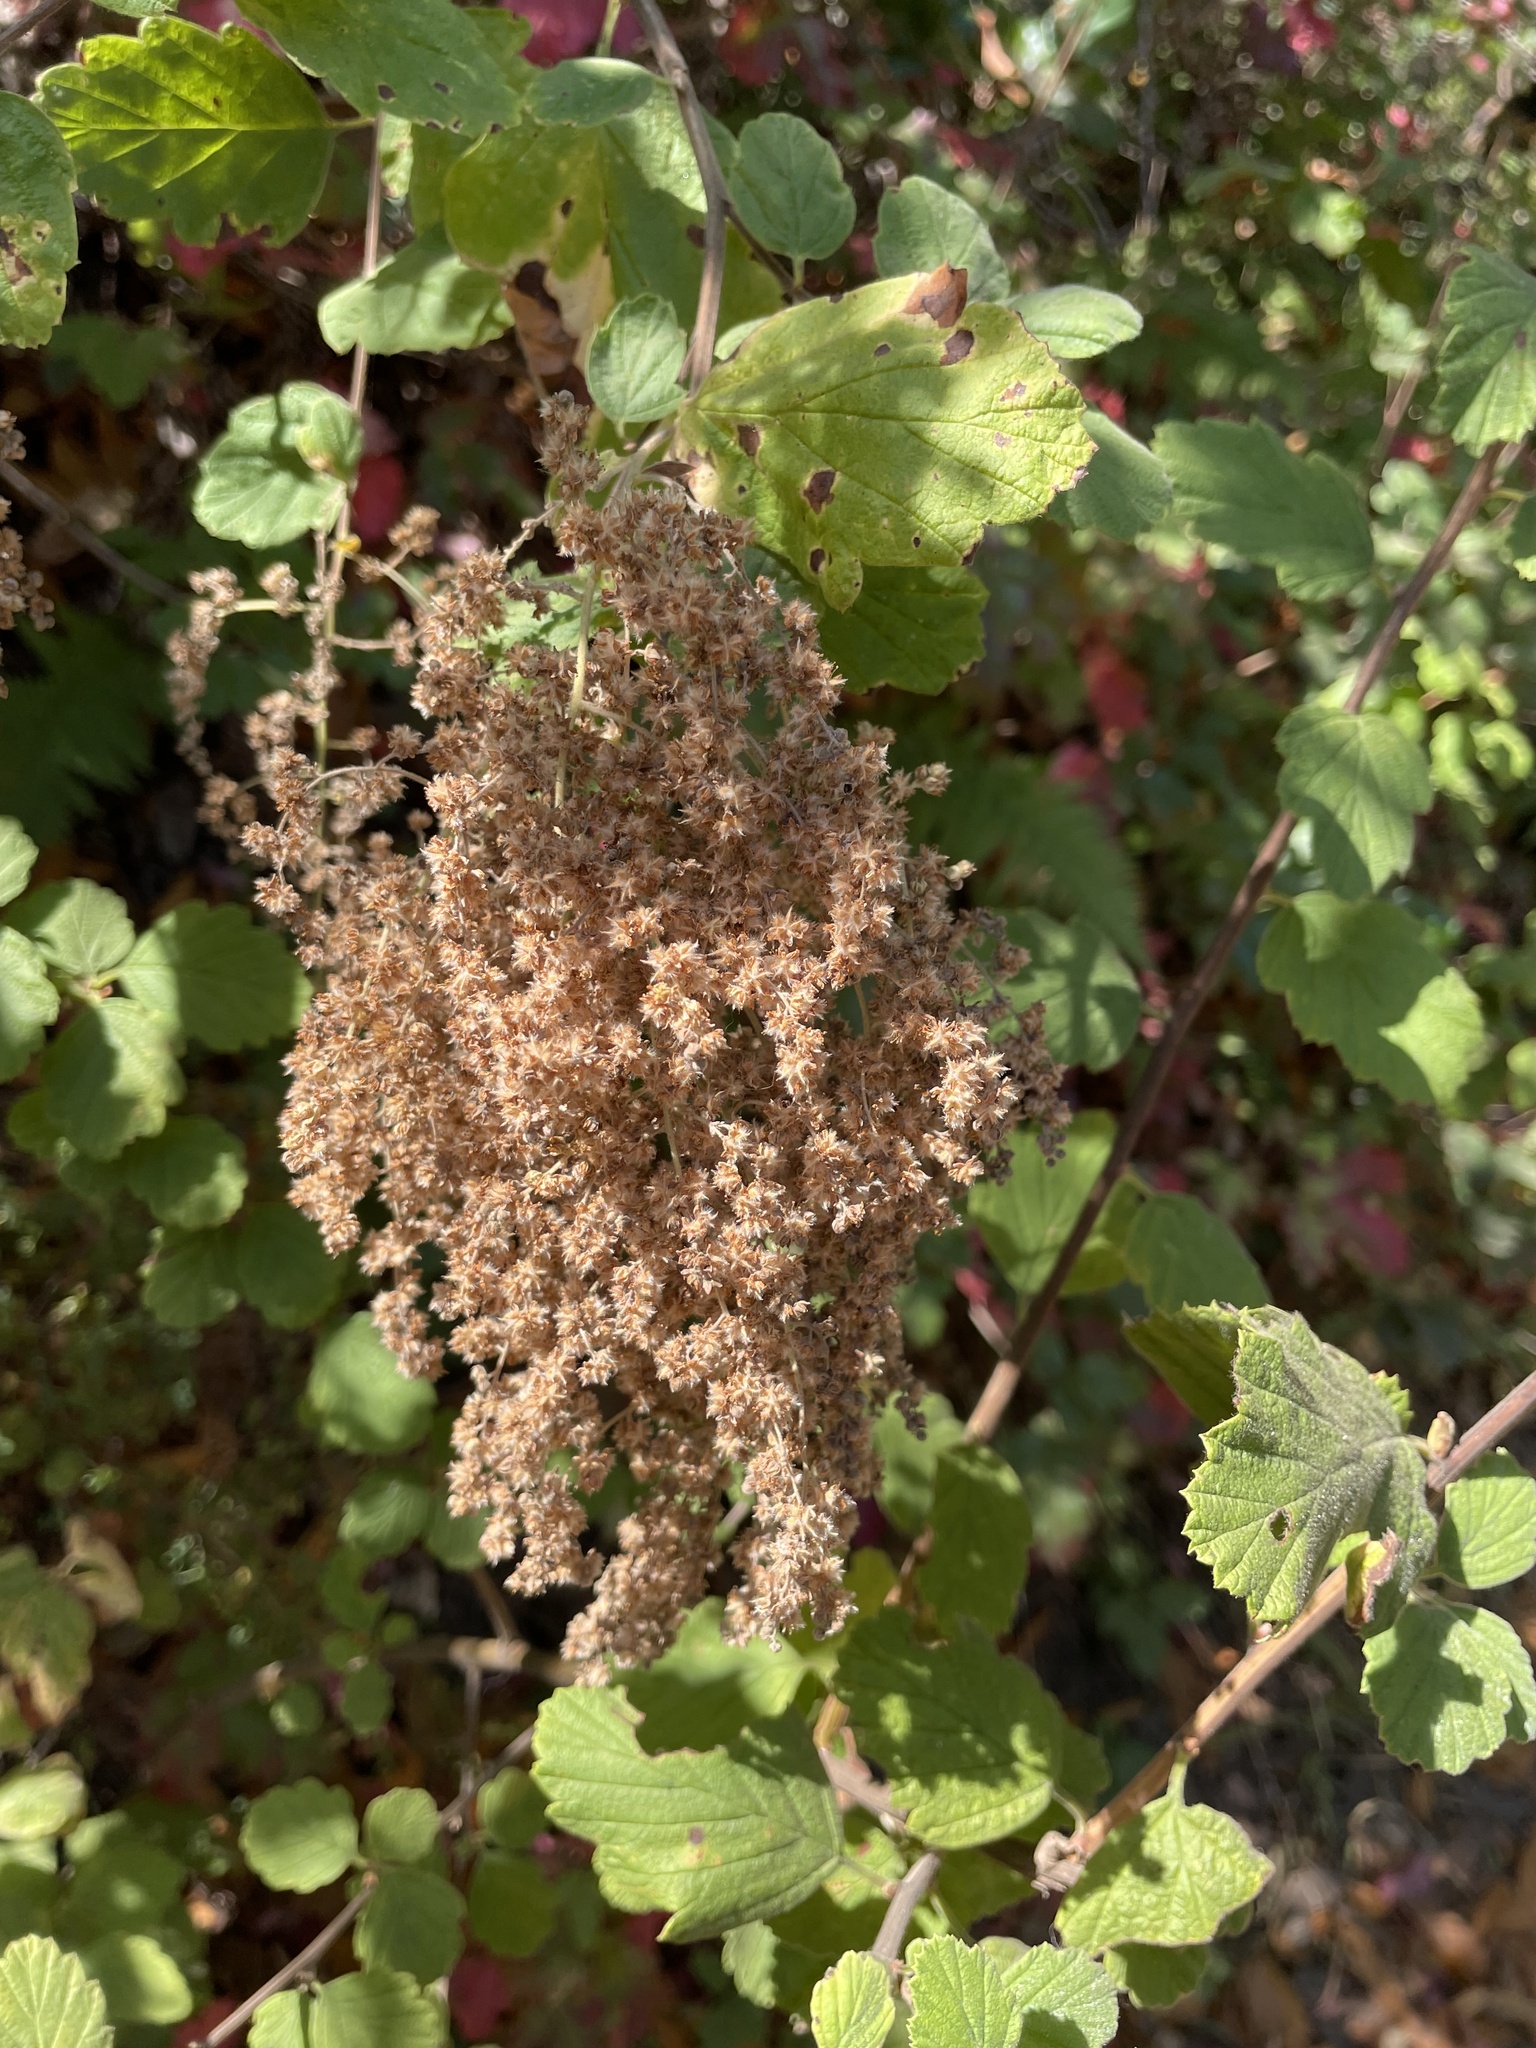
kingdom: Plantae
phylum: Tracheophyta
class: Magnoliopsida
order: Rosales
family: Rosaceae
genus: Holodiscus
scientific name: Holodiscus discolor
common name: Oceanspray
